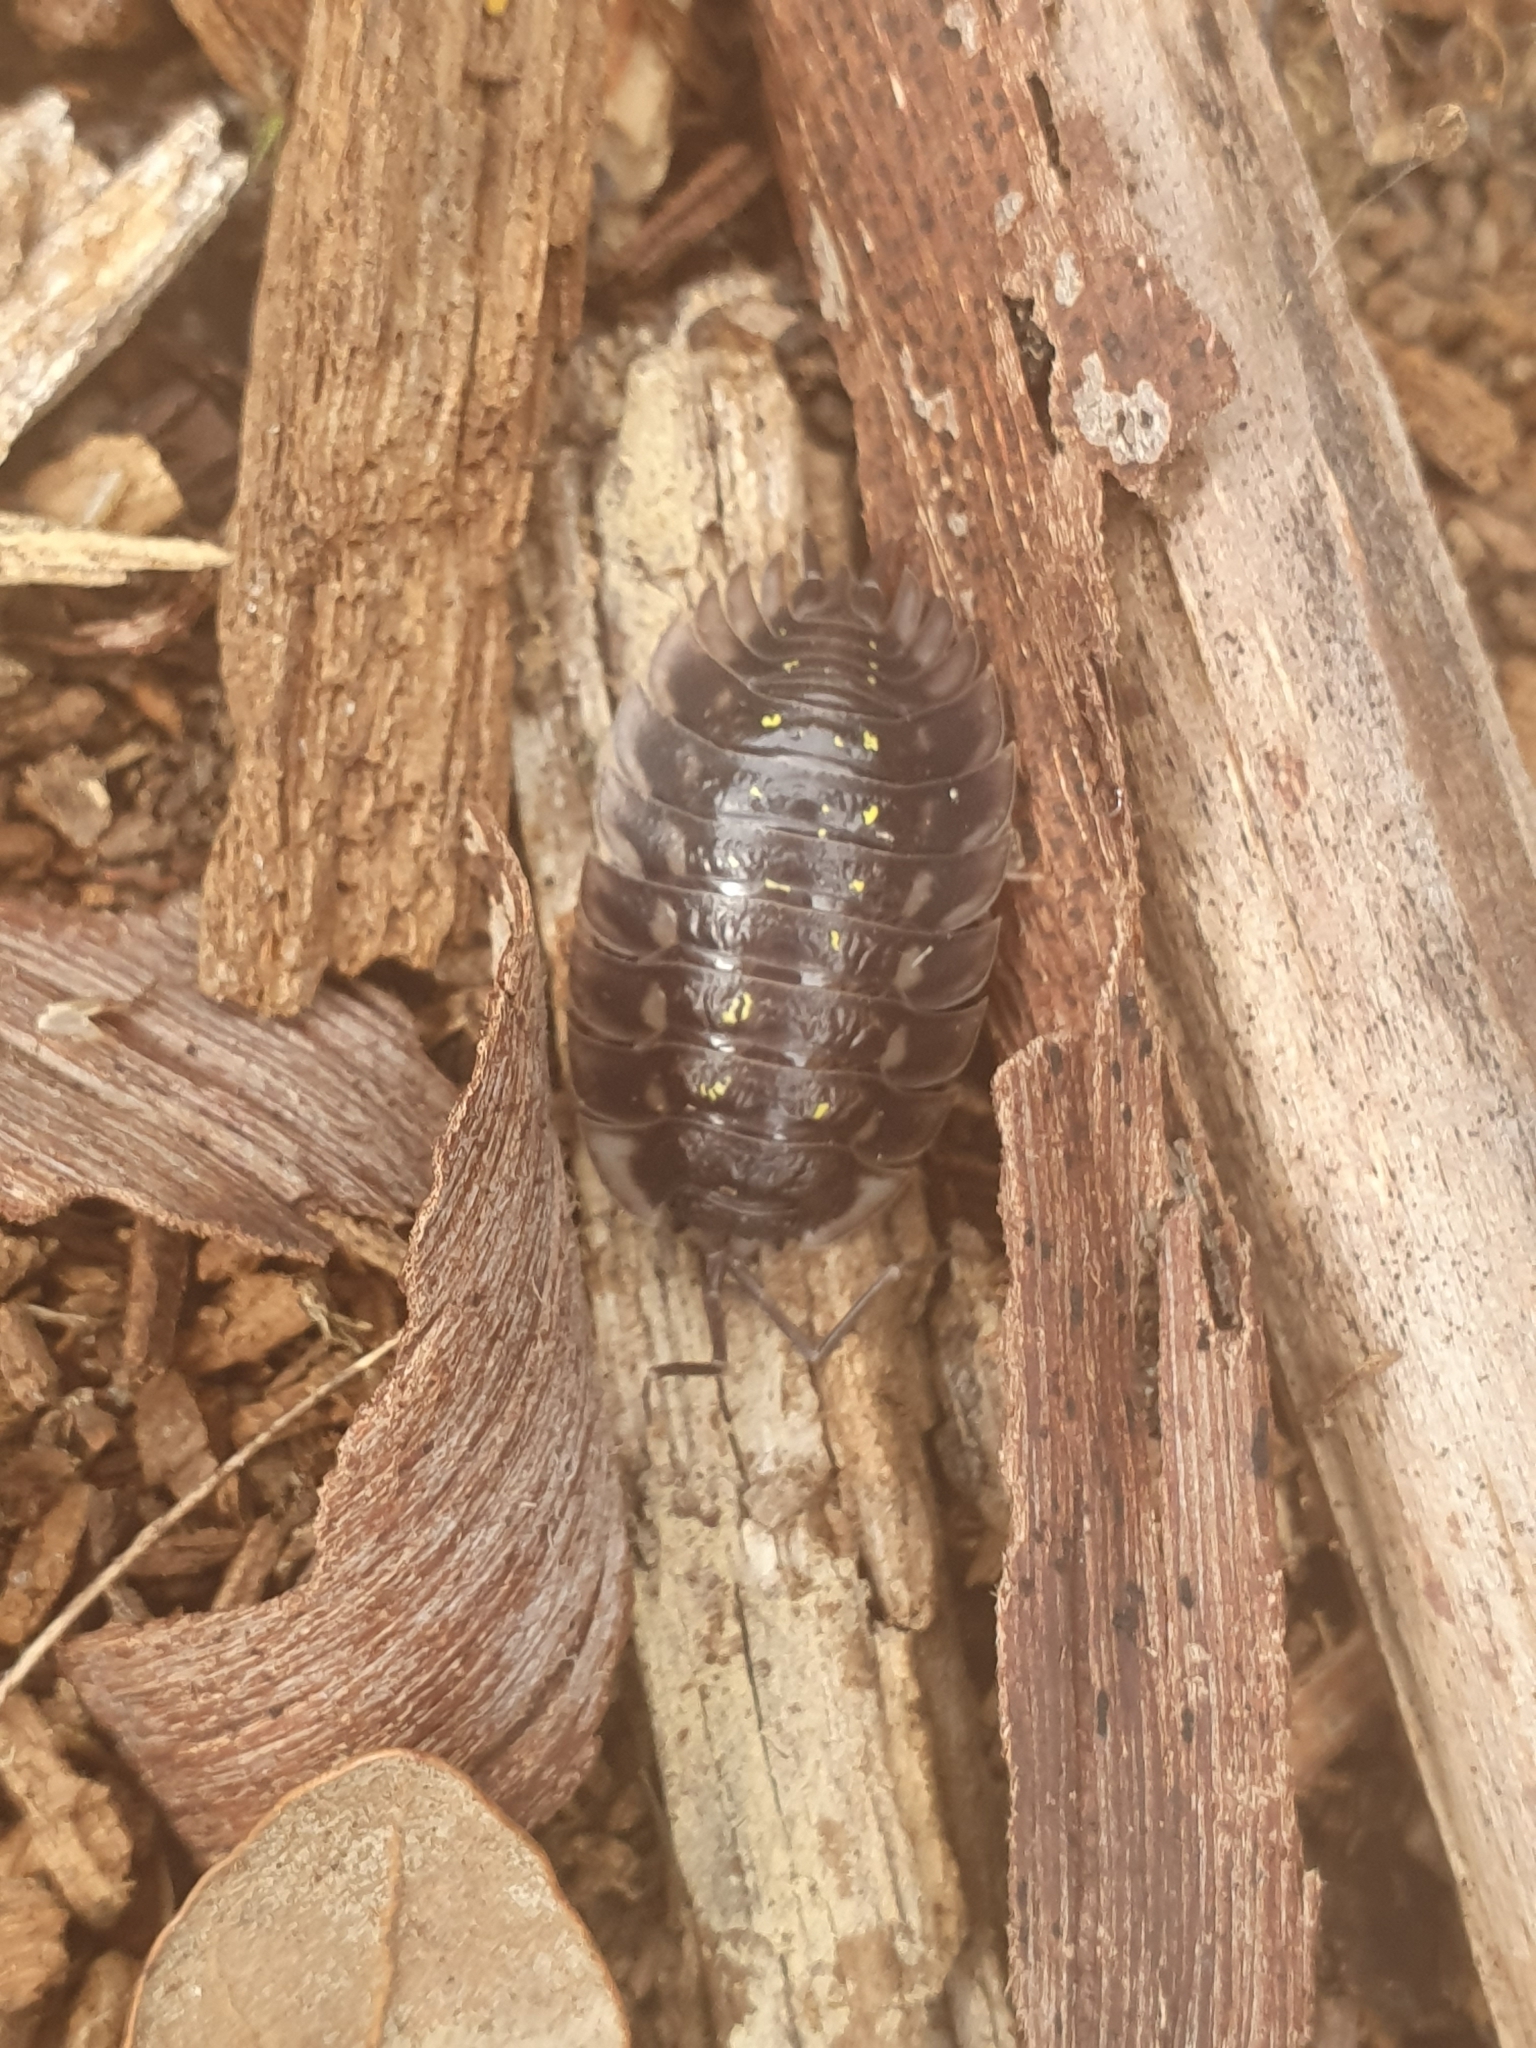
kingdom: Animalia
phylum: Arthropoda
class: Malacostraca
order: Isopoda
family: Oniscidae
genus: Oniscus
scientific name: Oniscus asellus
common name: Common shiny woodlouse
